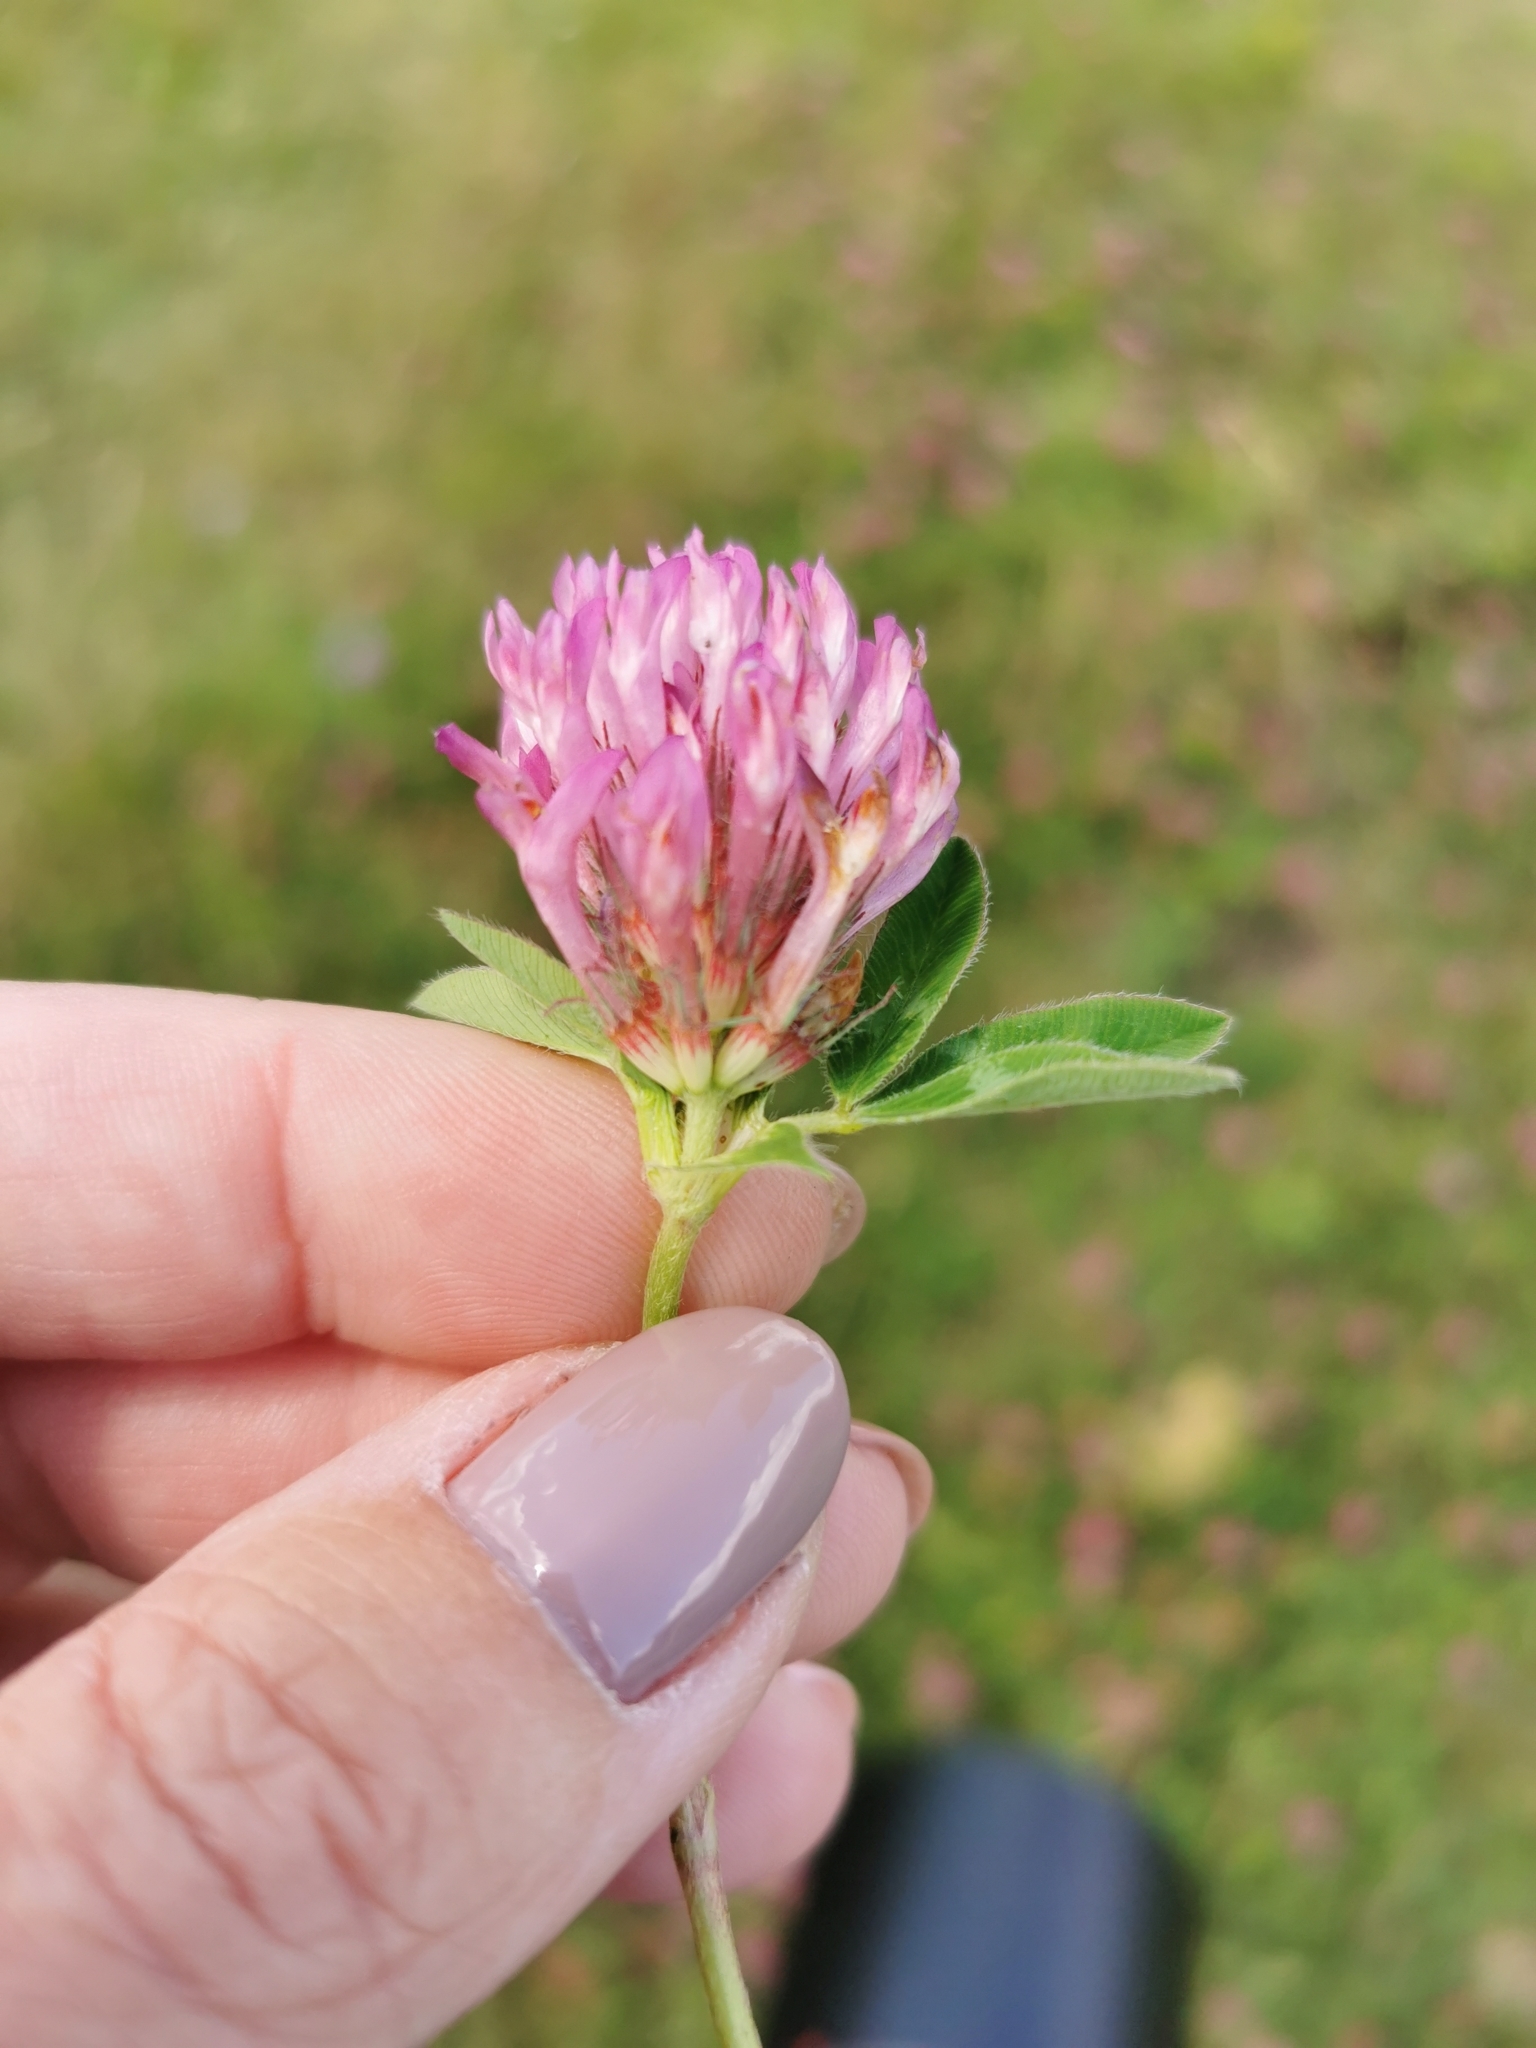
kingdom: Plantae
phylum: Tracheophyta
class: Magnoliopsida
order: Fabales
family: Fabaceae
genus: Trifolium
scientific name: Trifolium medium
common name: Zigzag clover
